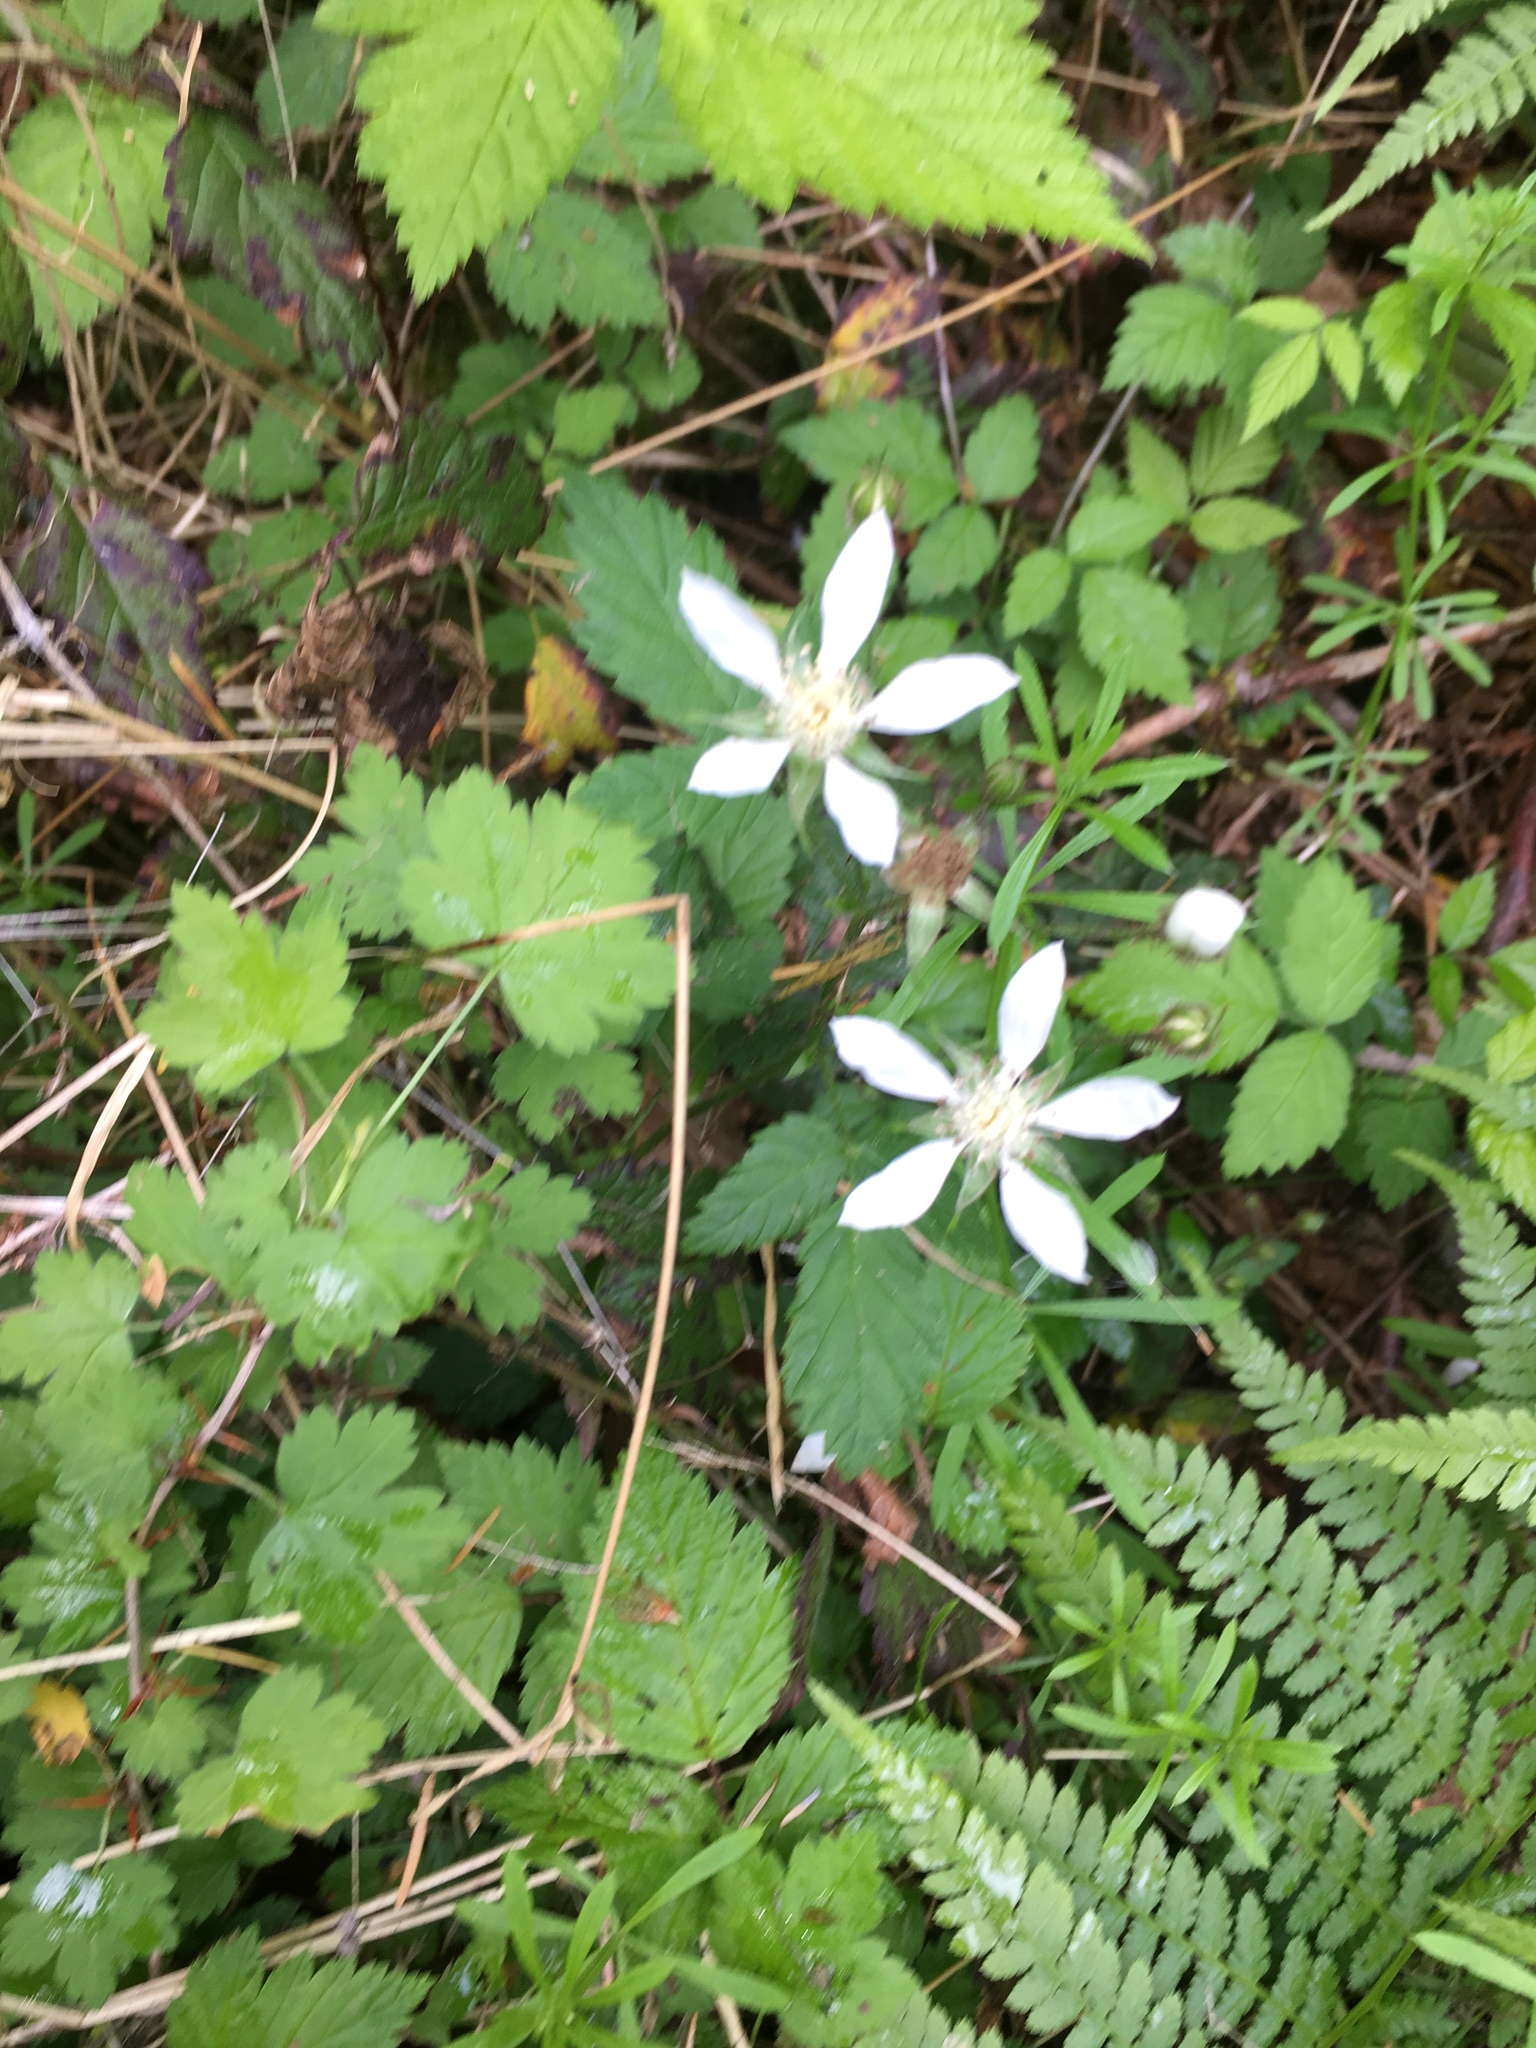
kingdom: Plantae
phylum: Tracheophyta
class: Magnoliopsida
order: Rosales
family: Rosaceae
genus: Rubus
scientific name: Rubus ursinus
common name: Pacific blackberry
